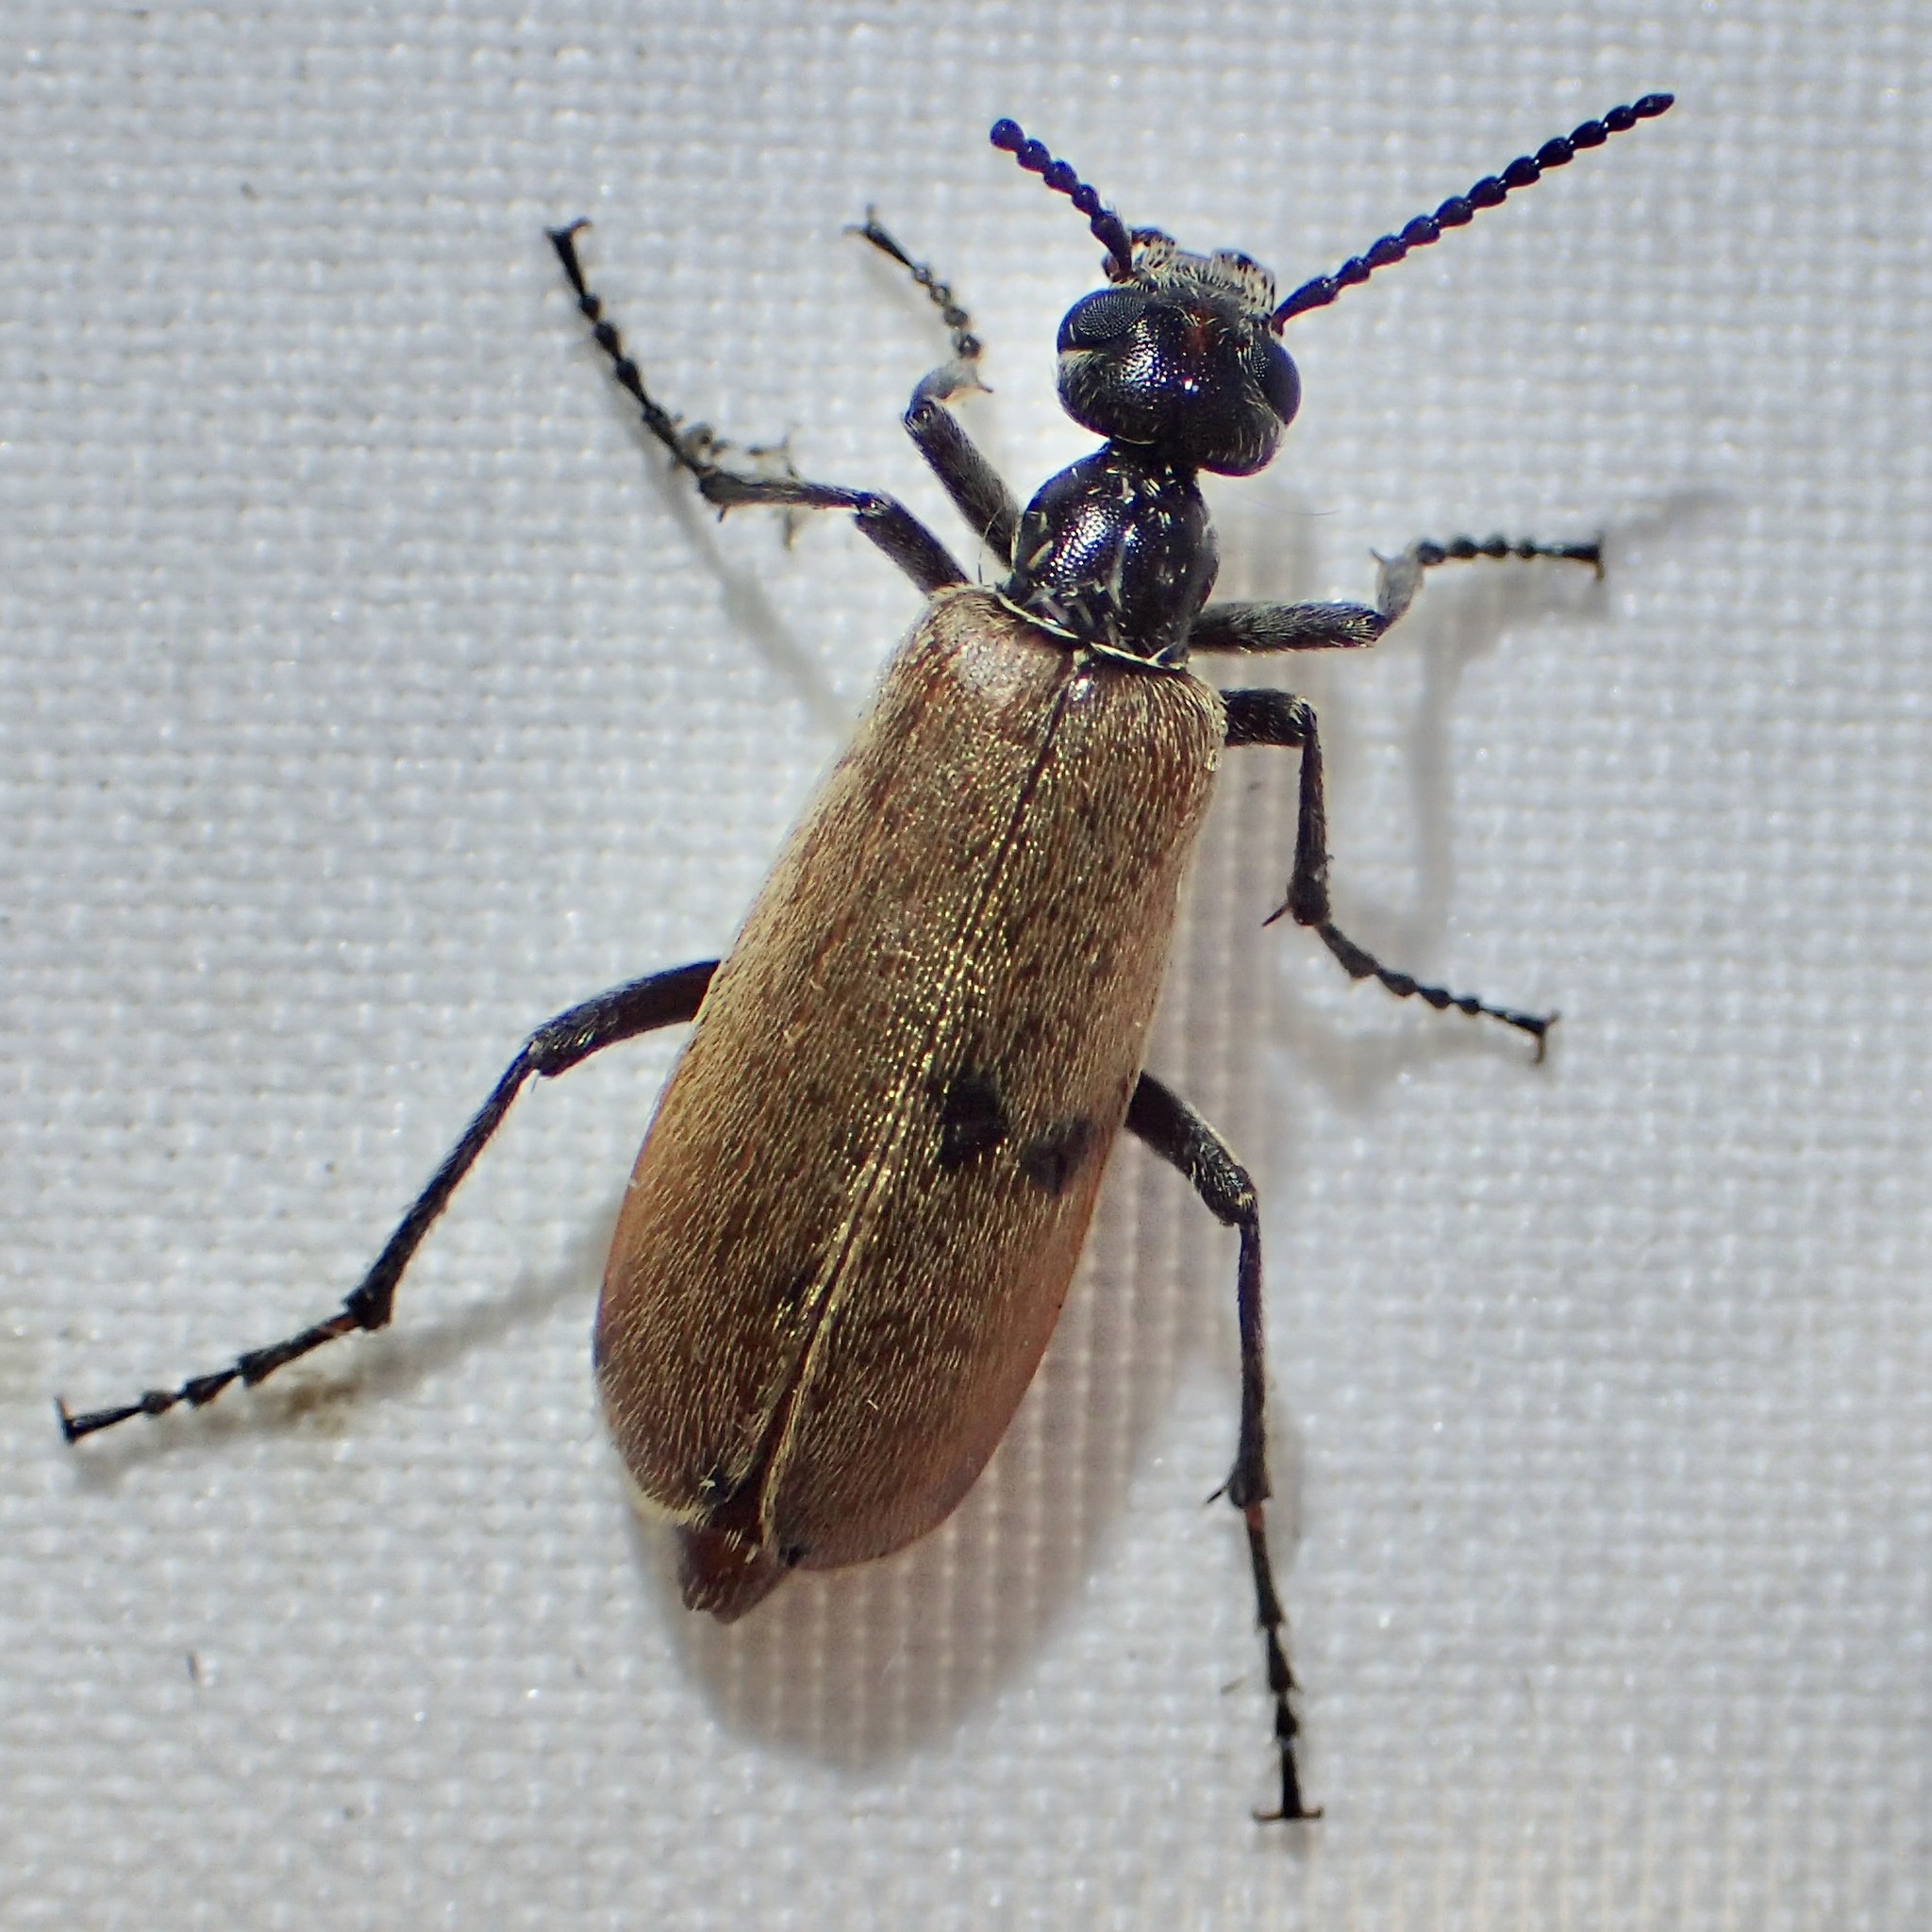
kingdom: Animalia
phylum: Arthropoda
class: Insecta
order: Coleoptera
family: Meloidae
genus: Epicauta
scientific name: Epicauta ochrea
